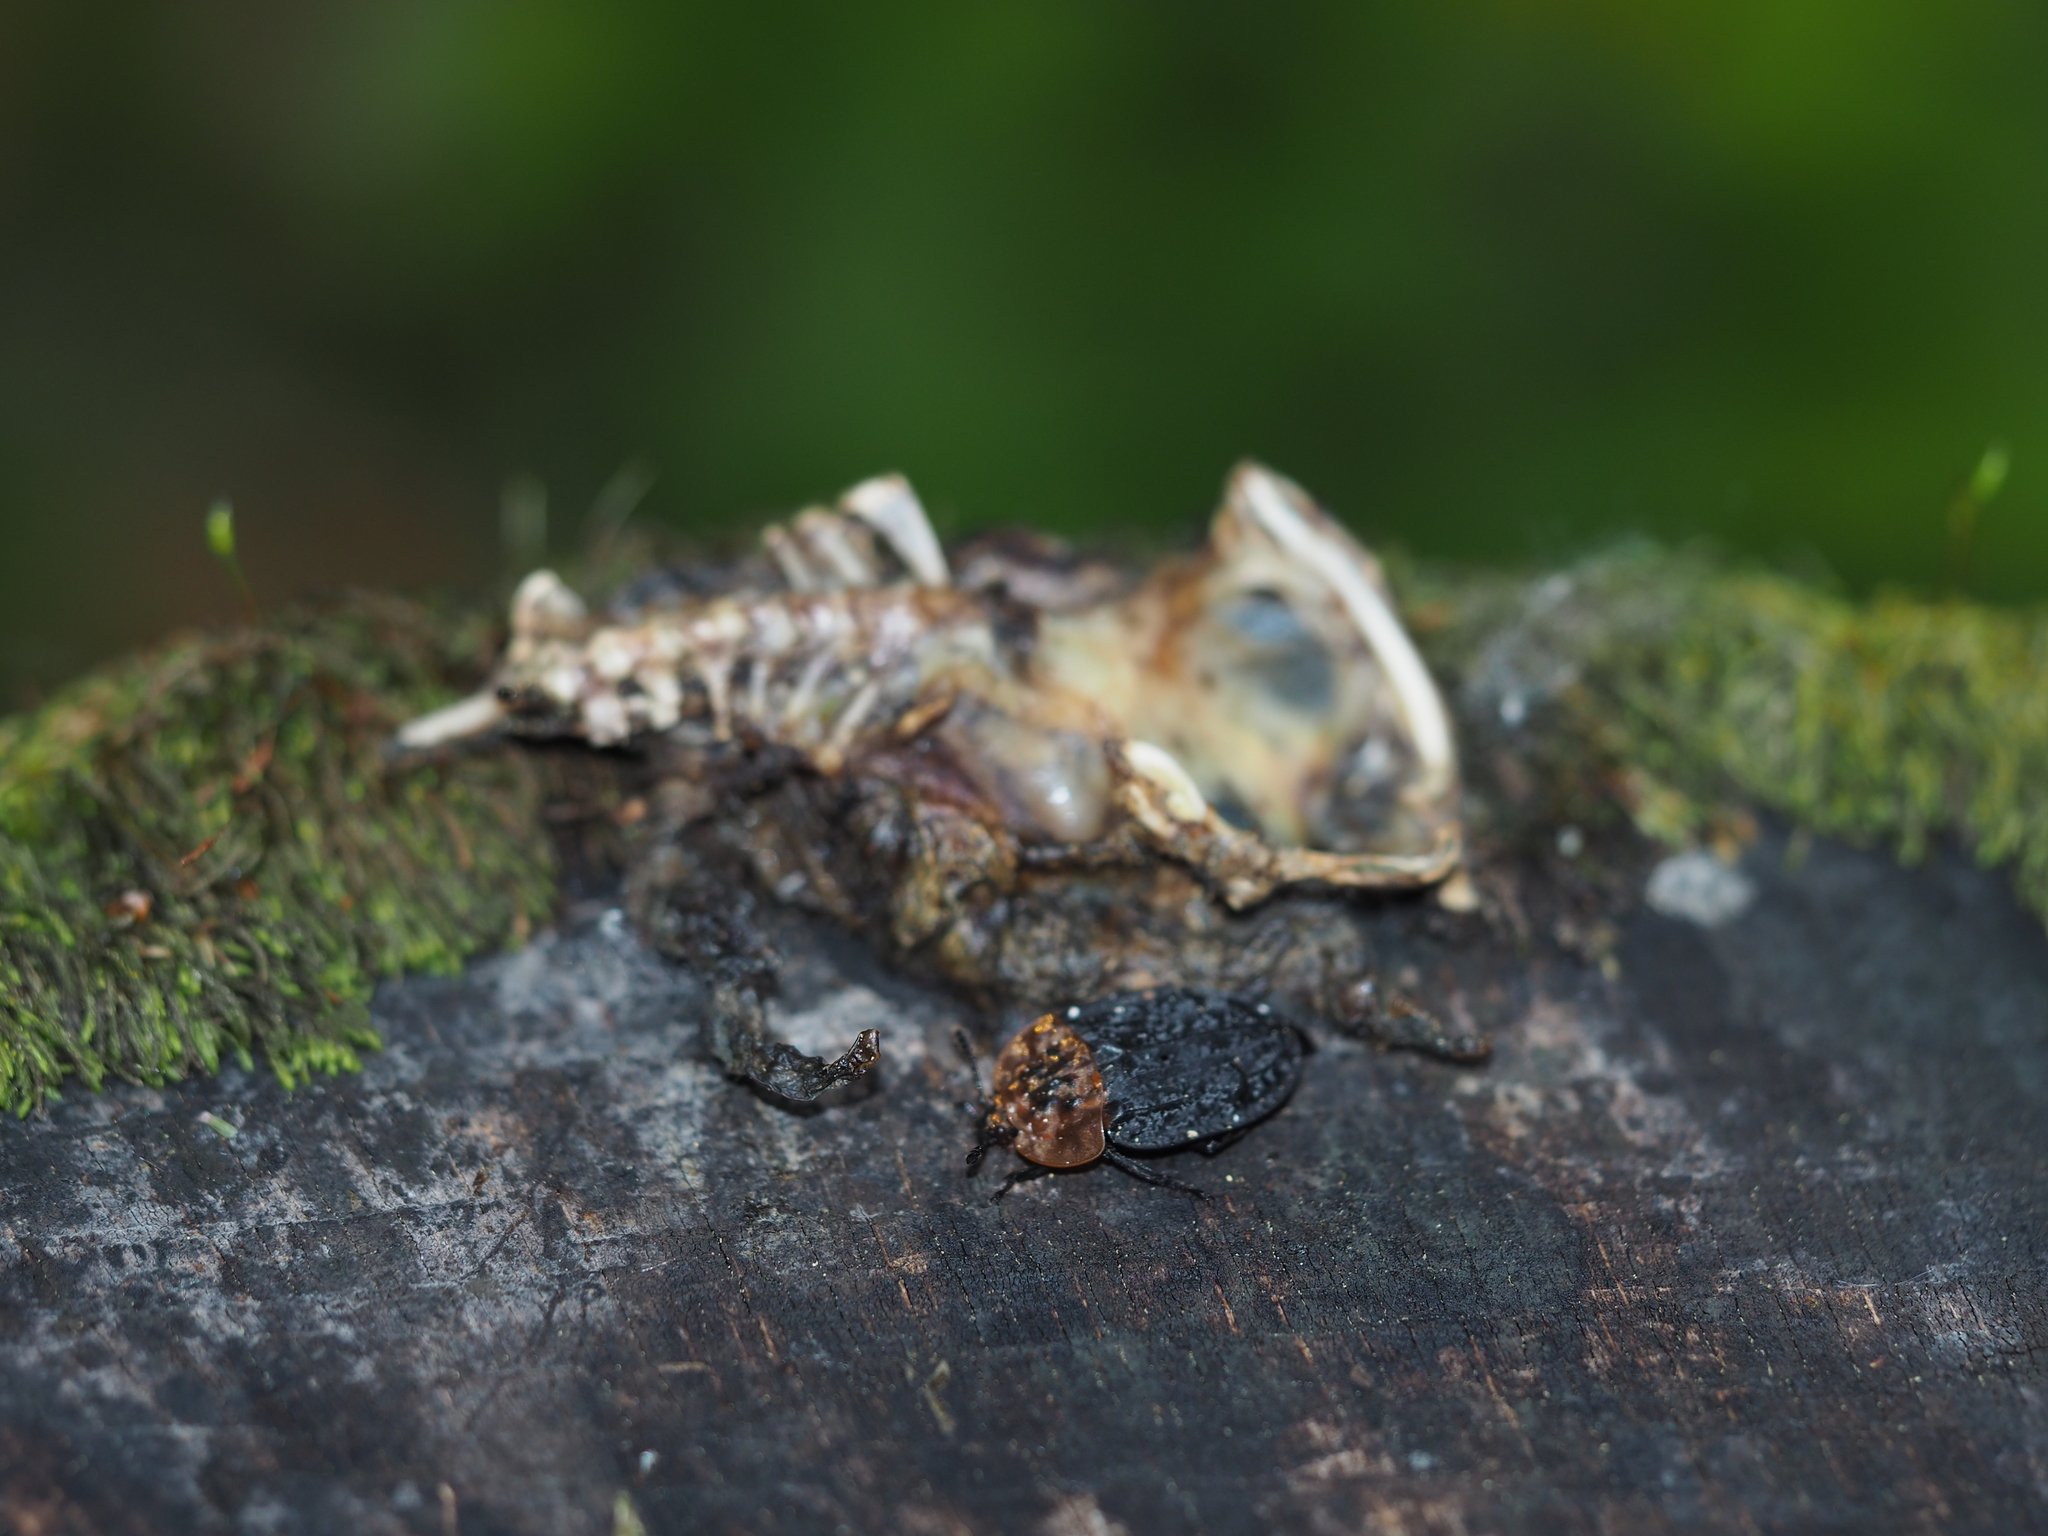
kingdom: Animalia
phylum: Arthropoda
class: Insecta
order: Coleoptera
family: Staphylinidae
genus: Oiceoptoma
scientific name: Oiceoptoma thoracicum
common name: Red-breasted carrion beetle
